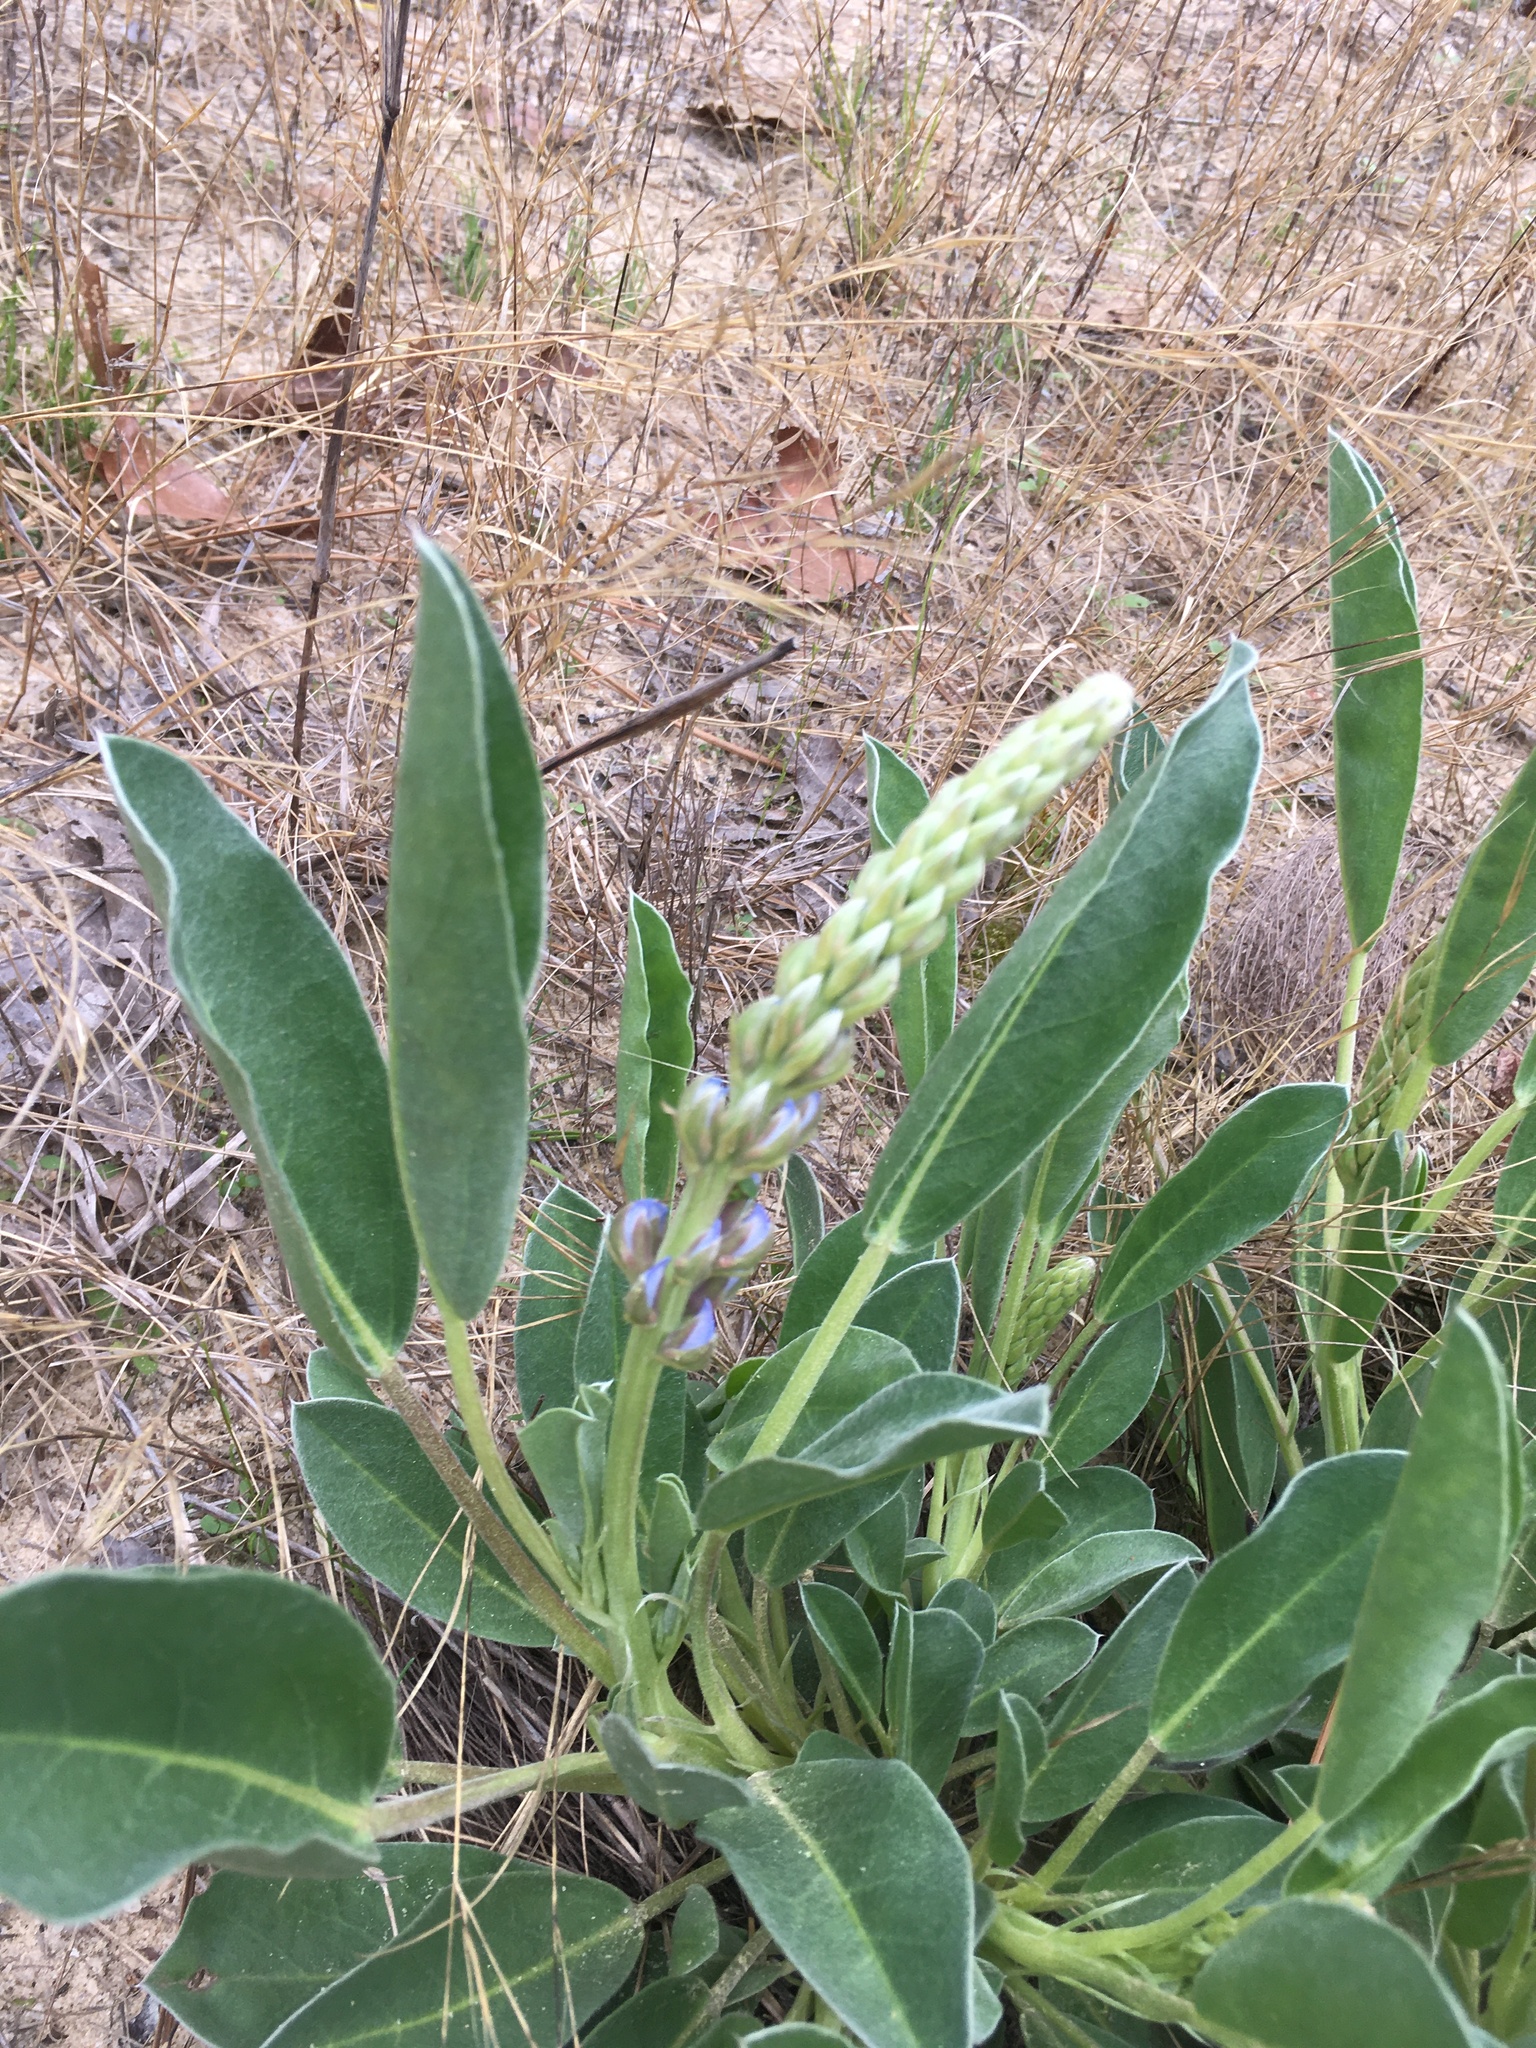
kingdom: Plantae
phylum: Tracheophyta
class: Magnoliopsida
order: Fabales
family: Fabaceae
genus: Lupinus
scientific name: Lupinus diffusus
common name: Oak ridge lupine
